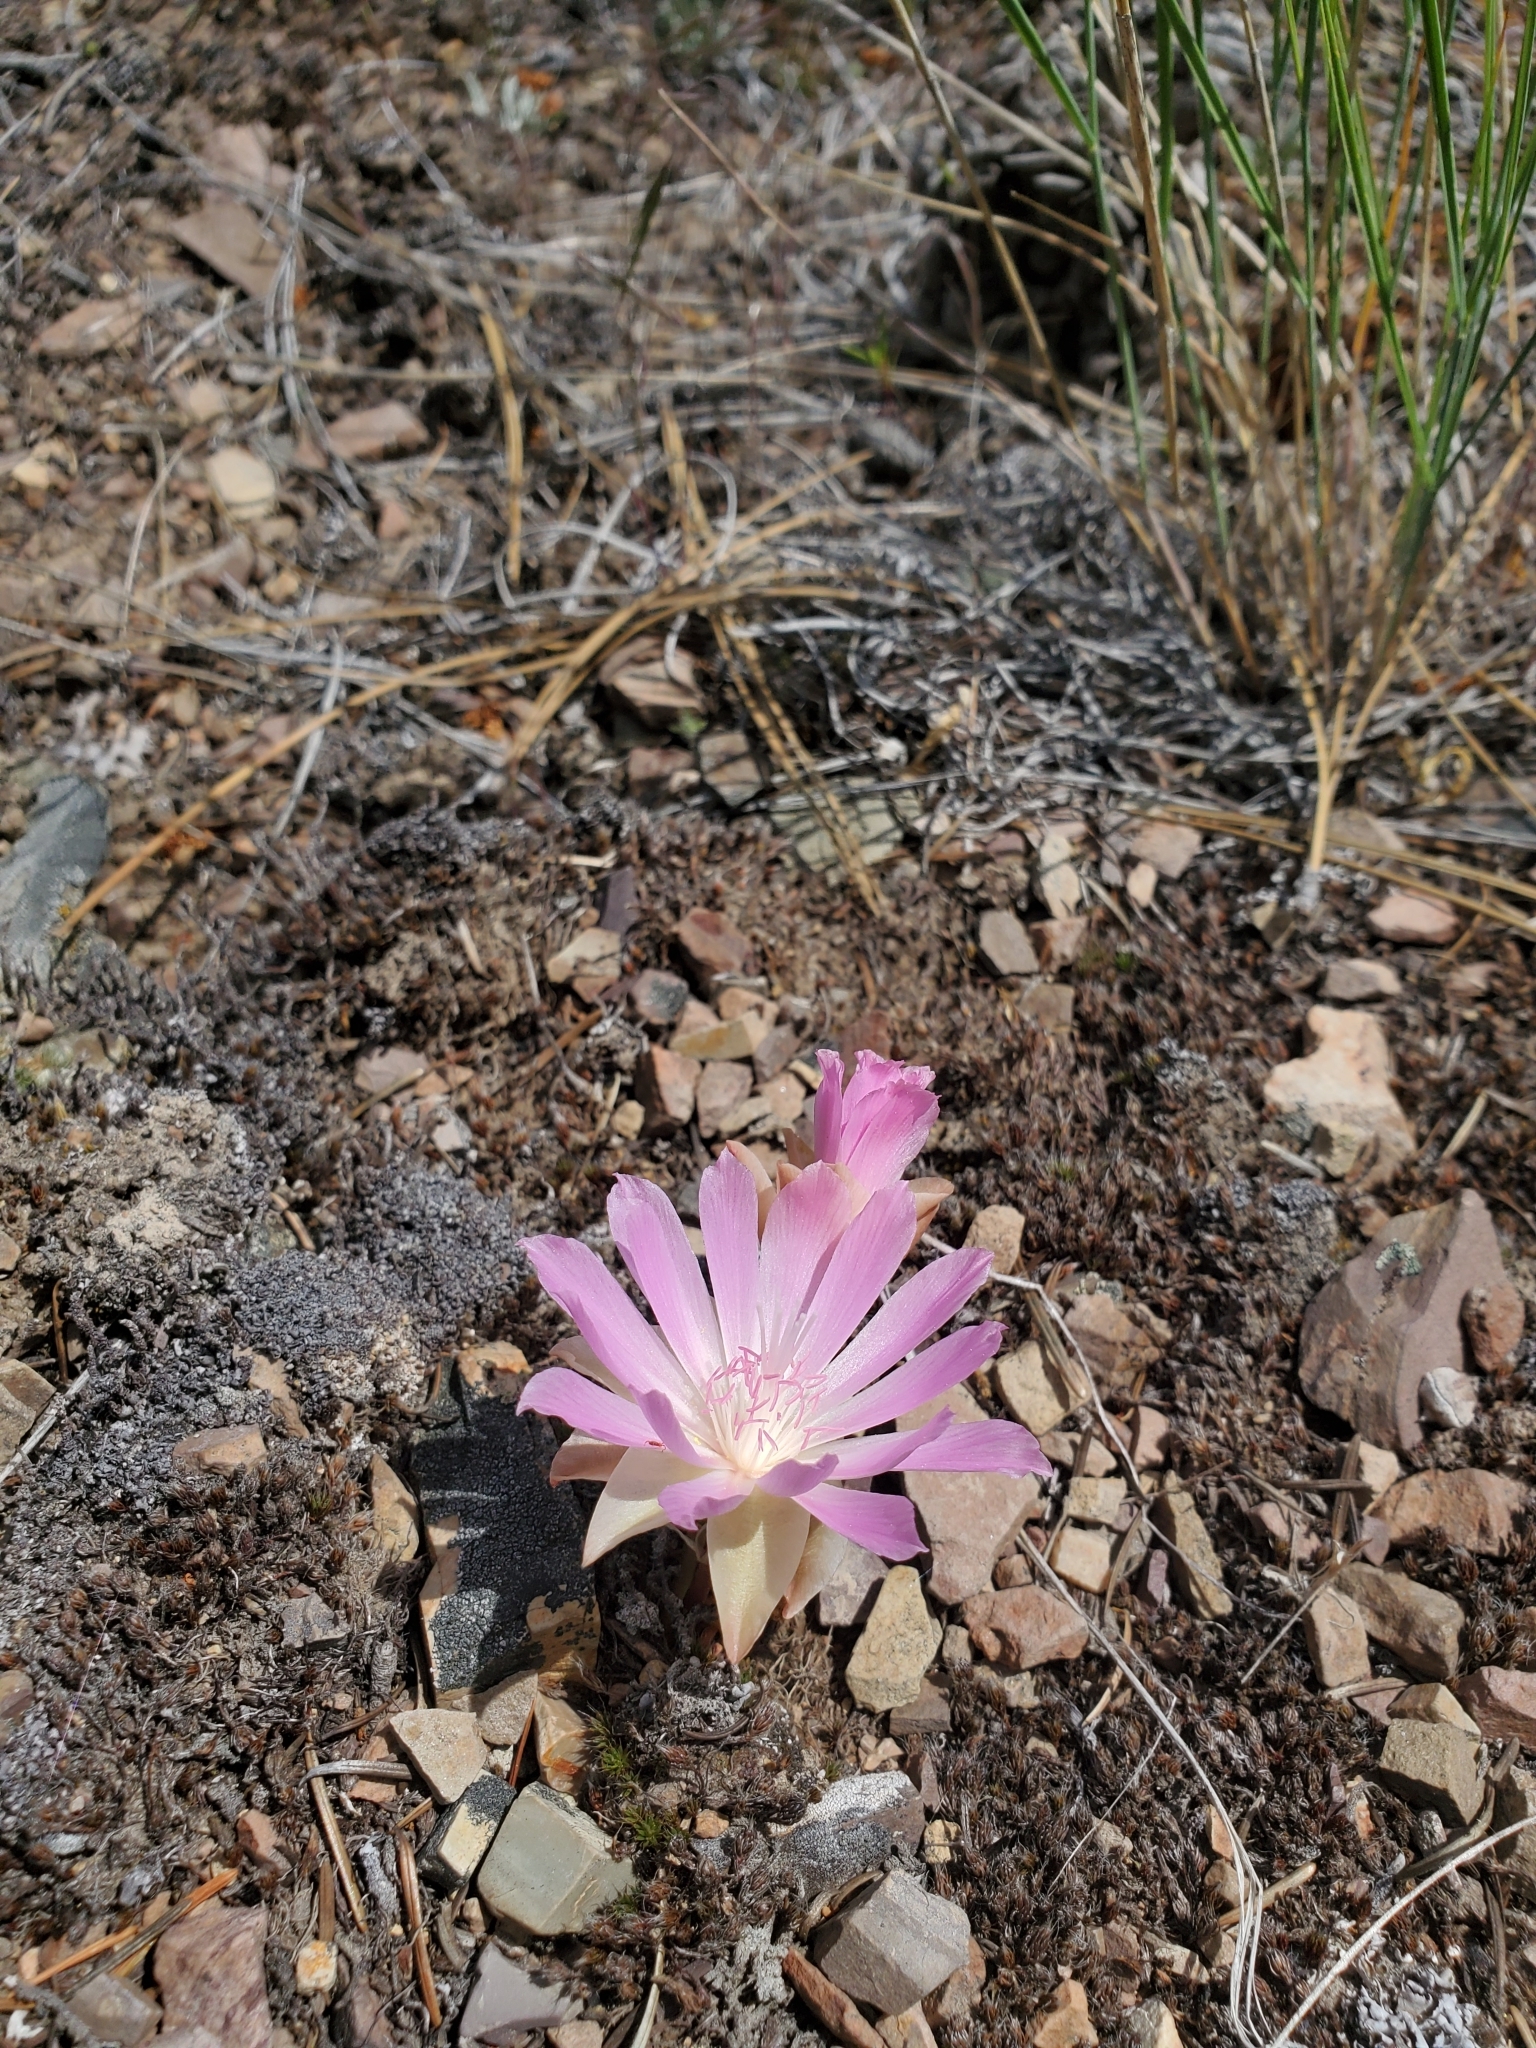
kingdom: Plantae
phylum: Tracheophyta
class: Magnoliopsida
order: Caryophyllales
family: Montiaceae
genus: Lewisia
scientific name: Lewisia rediviva
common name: Bitter-root
